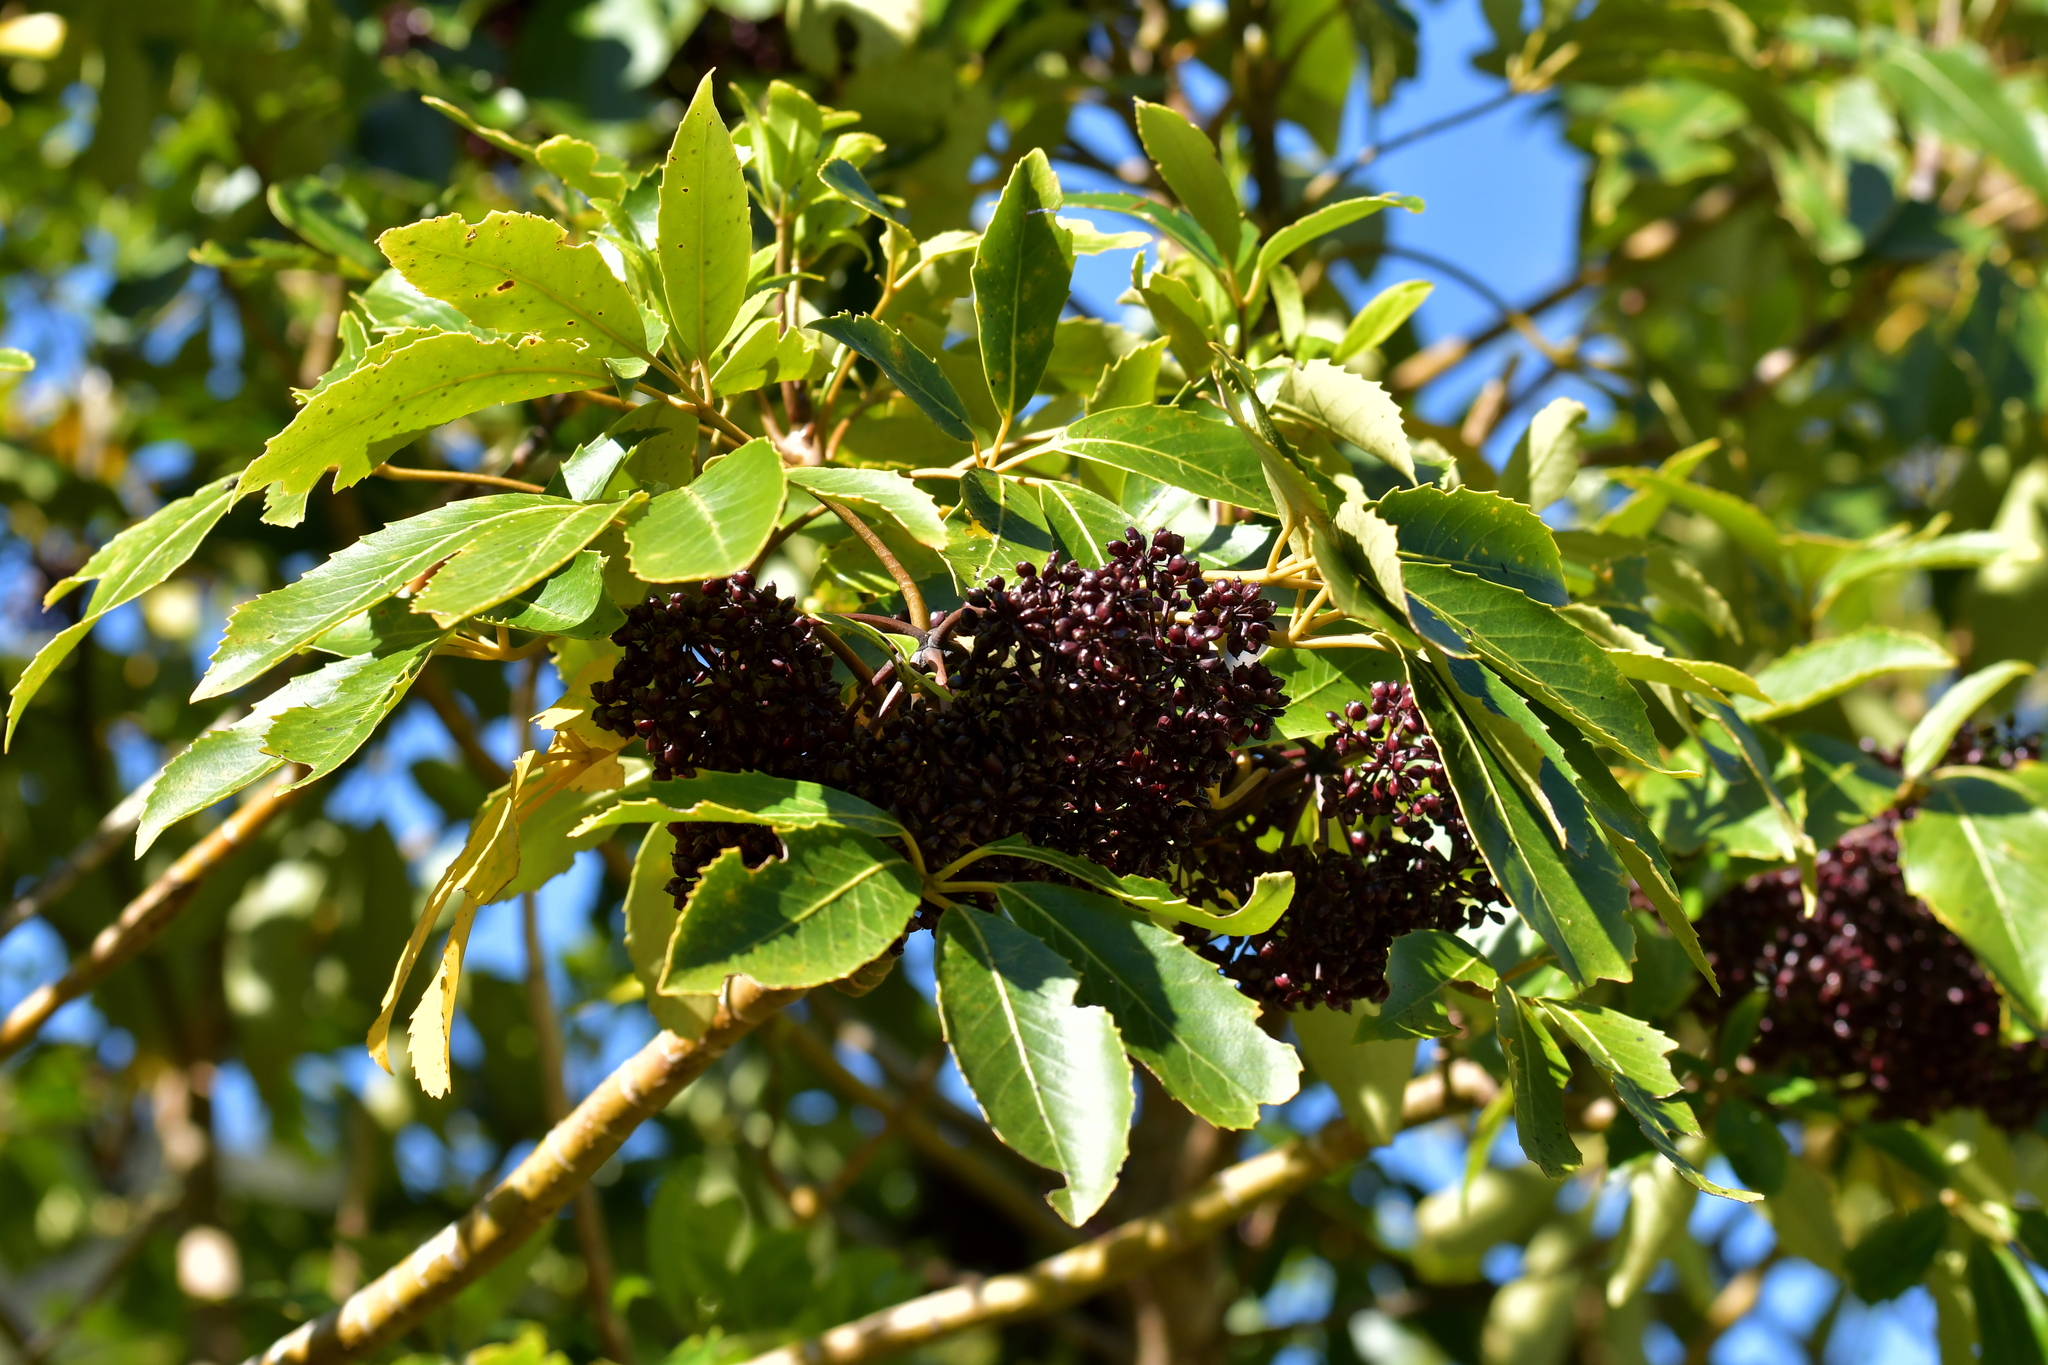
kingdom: Plantae
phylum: Tracheophyta
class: Magnoliopsida
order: Apiales
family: Araliaceae
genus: Neopanax
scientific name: Neopanax arboreus
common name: Five-fingers
